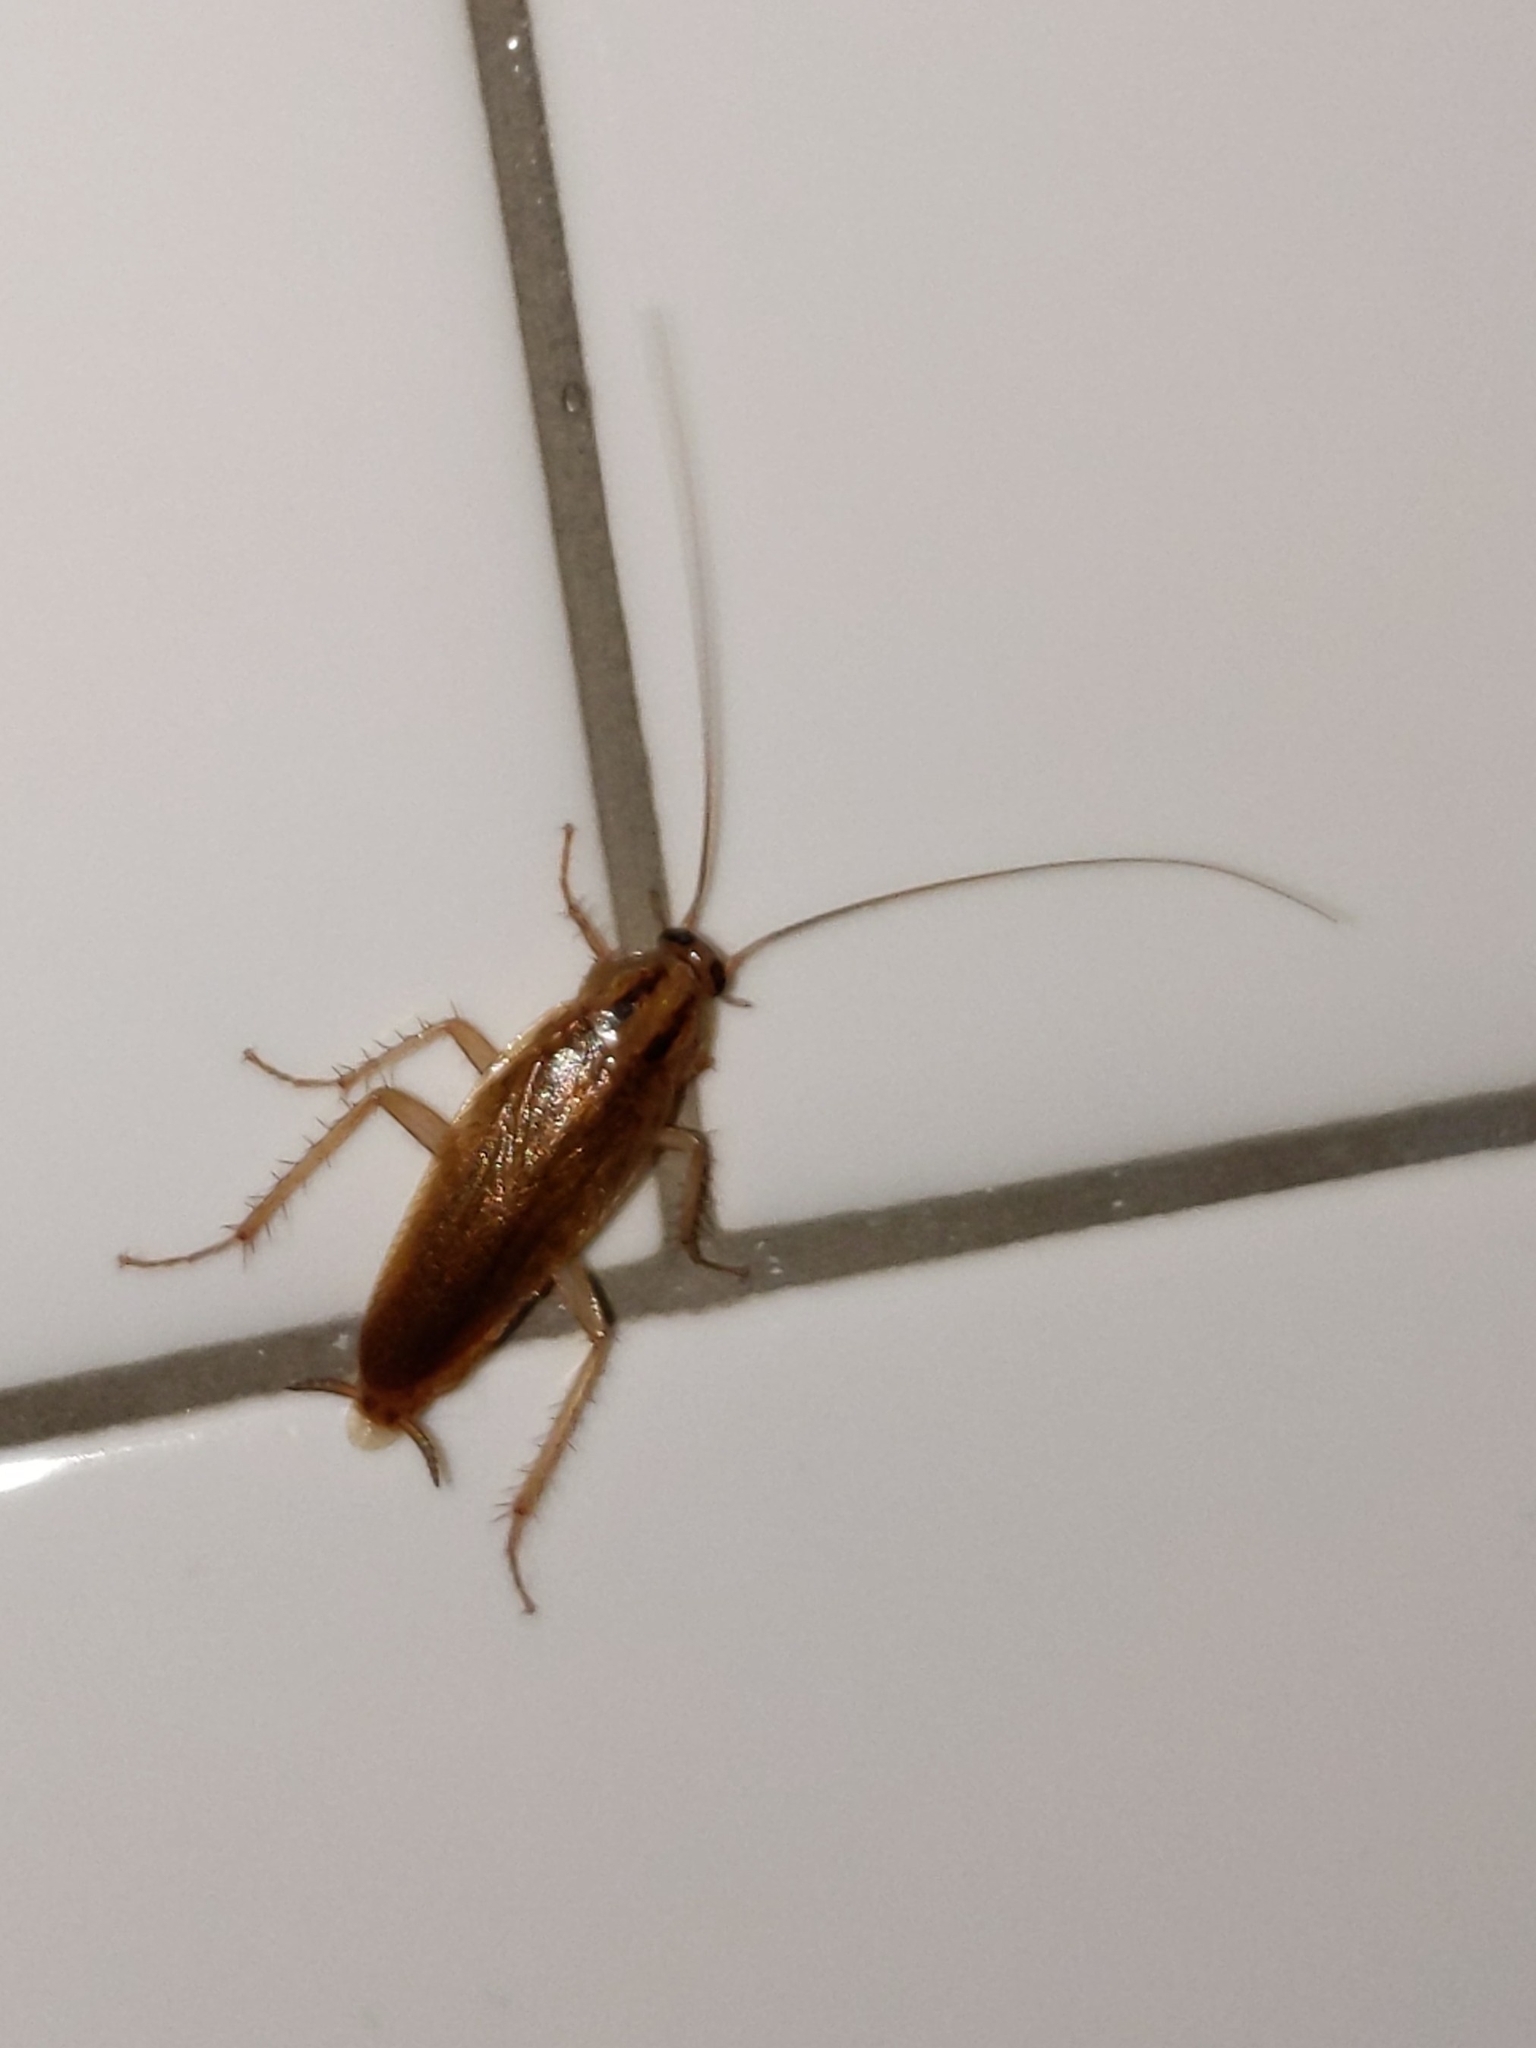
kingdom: Animalia
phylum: Arthropoda
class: Insecta
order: Blattodea
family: Ectobiidae
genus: Blattella
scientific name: Blattella germanica
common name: German cockroach
